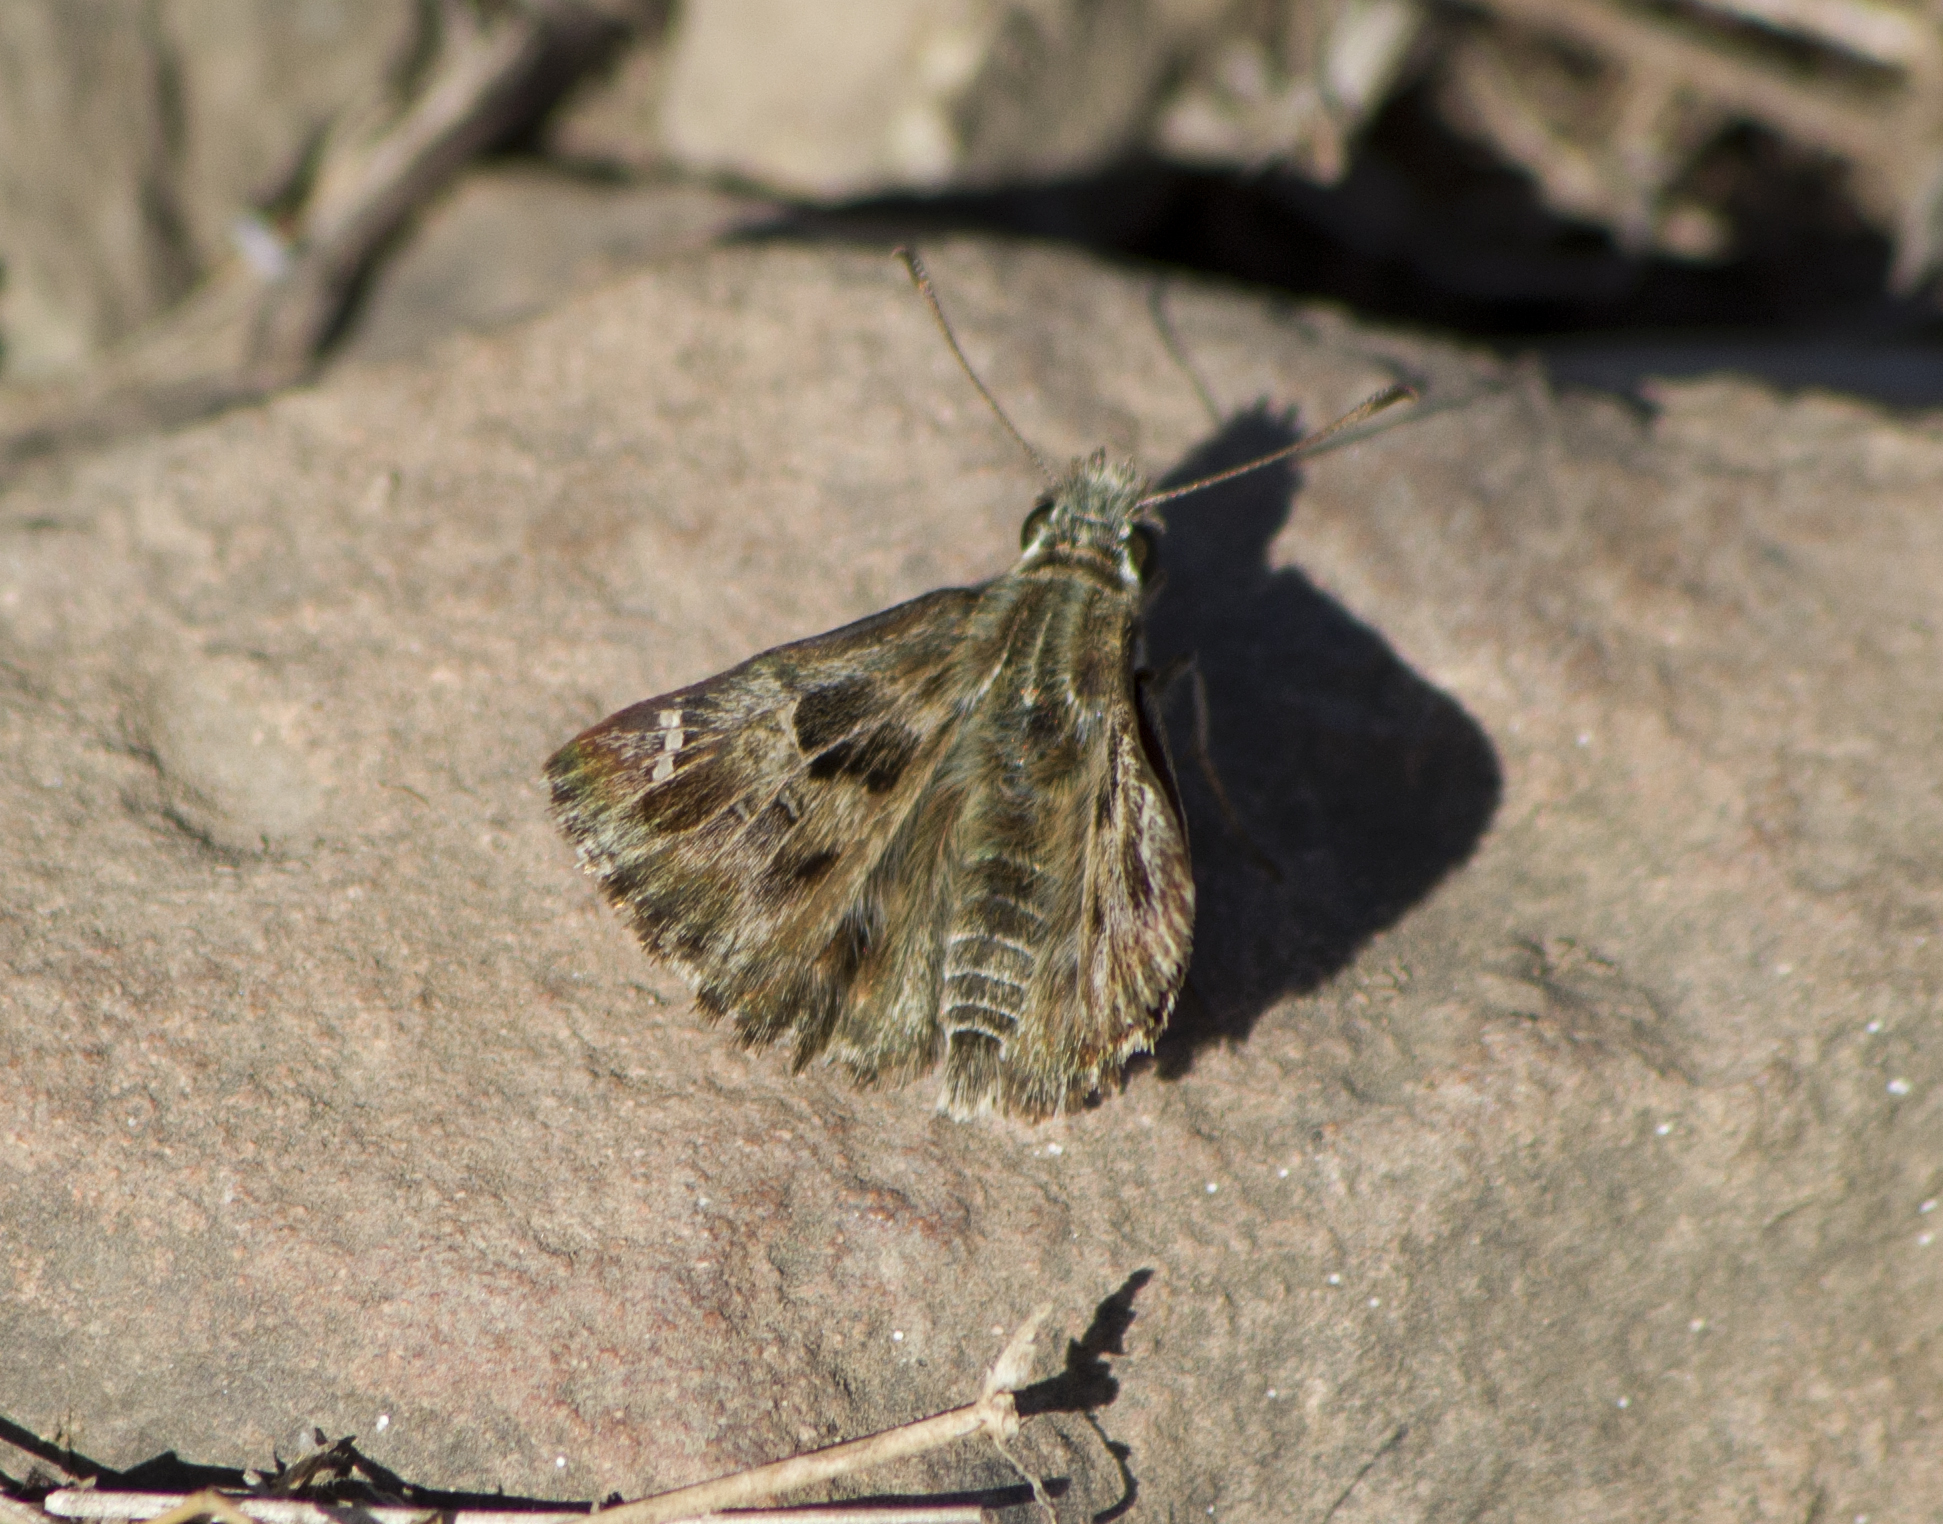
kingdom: Animalia
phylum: Arthropoda
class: Insecta
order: Lepidoptera
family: Hesperiidae
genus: Carcharodus
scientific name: Carcharodus alceae
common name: Mallow skipper
